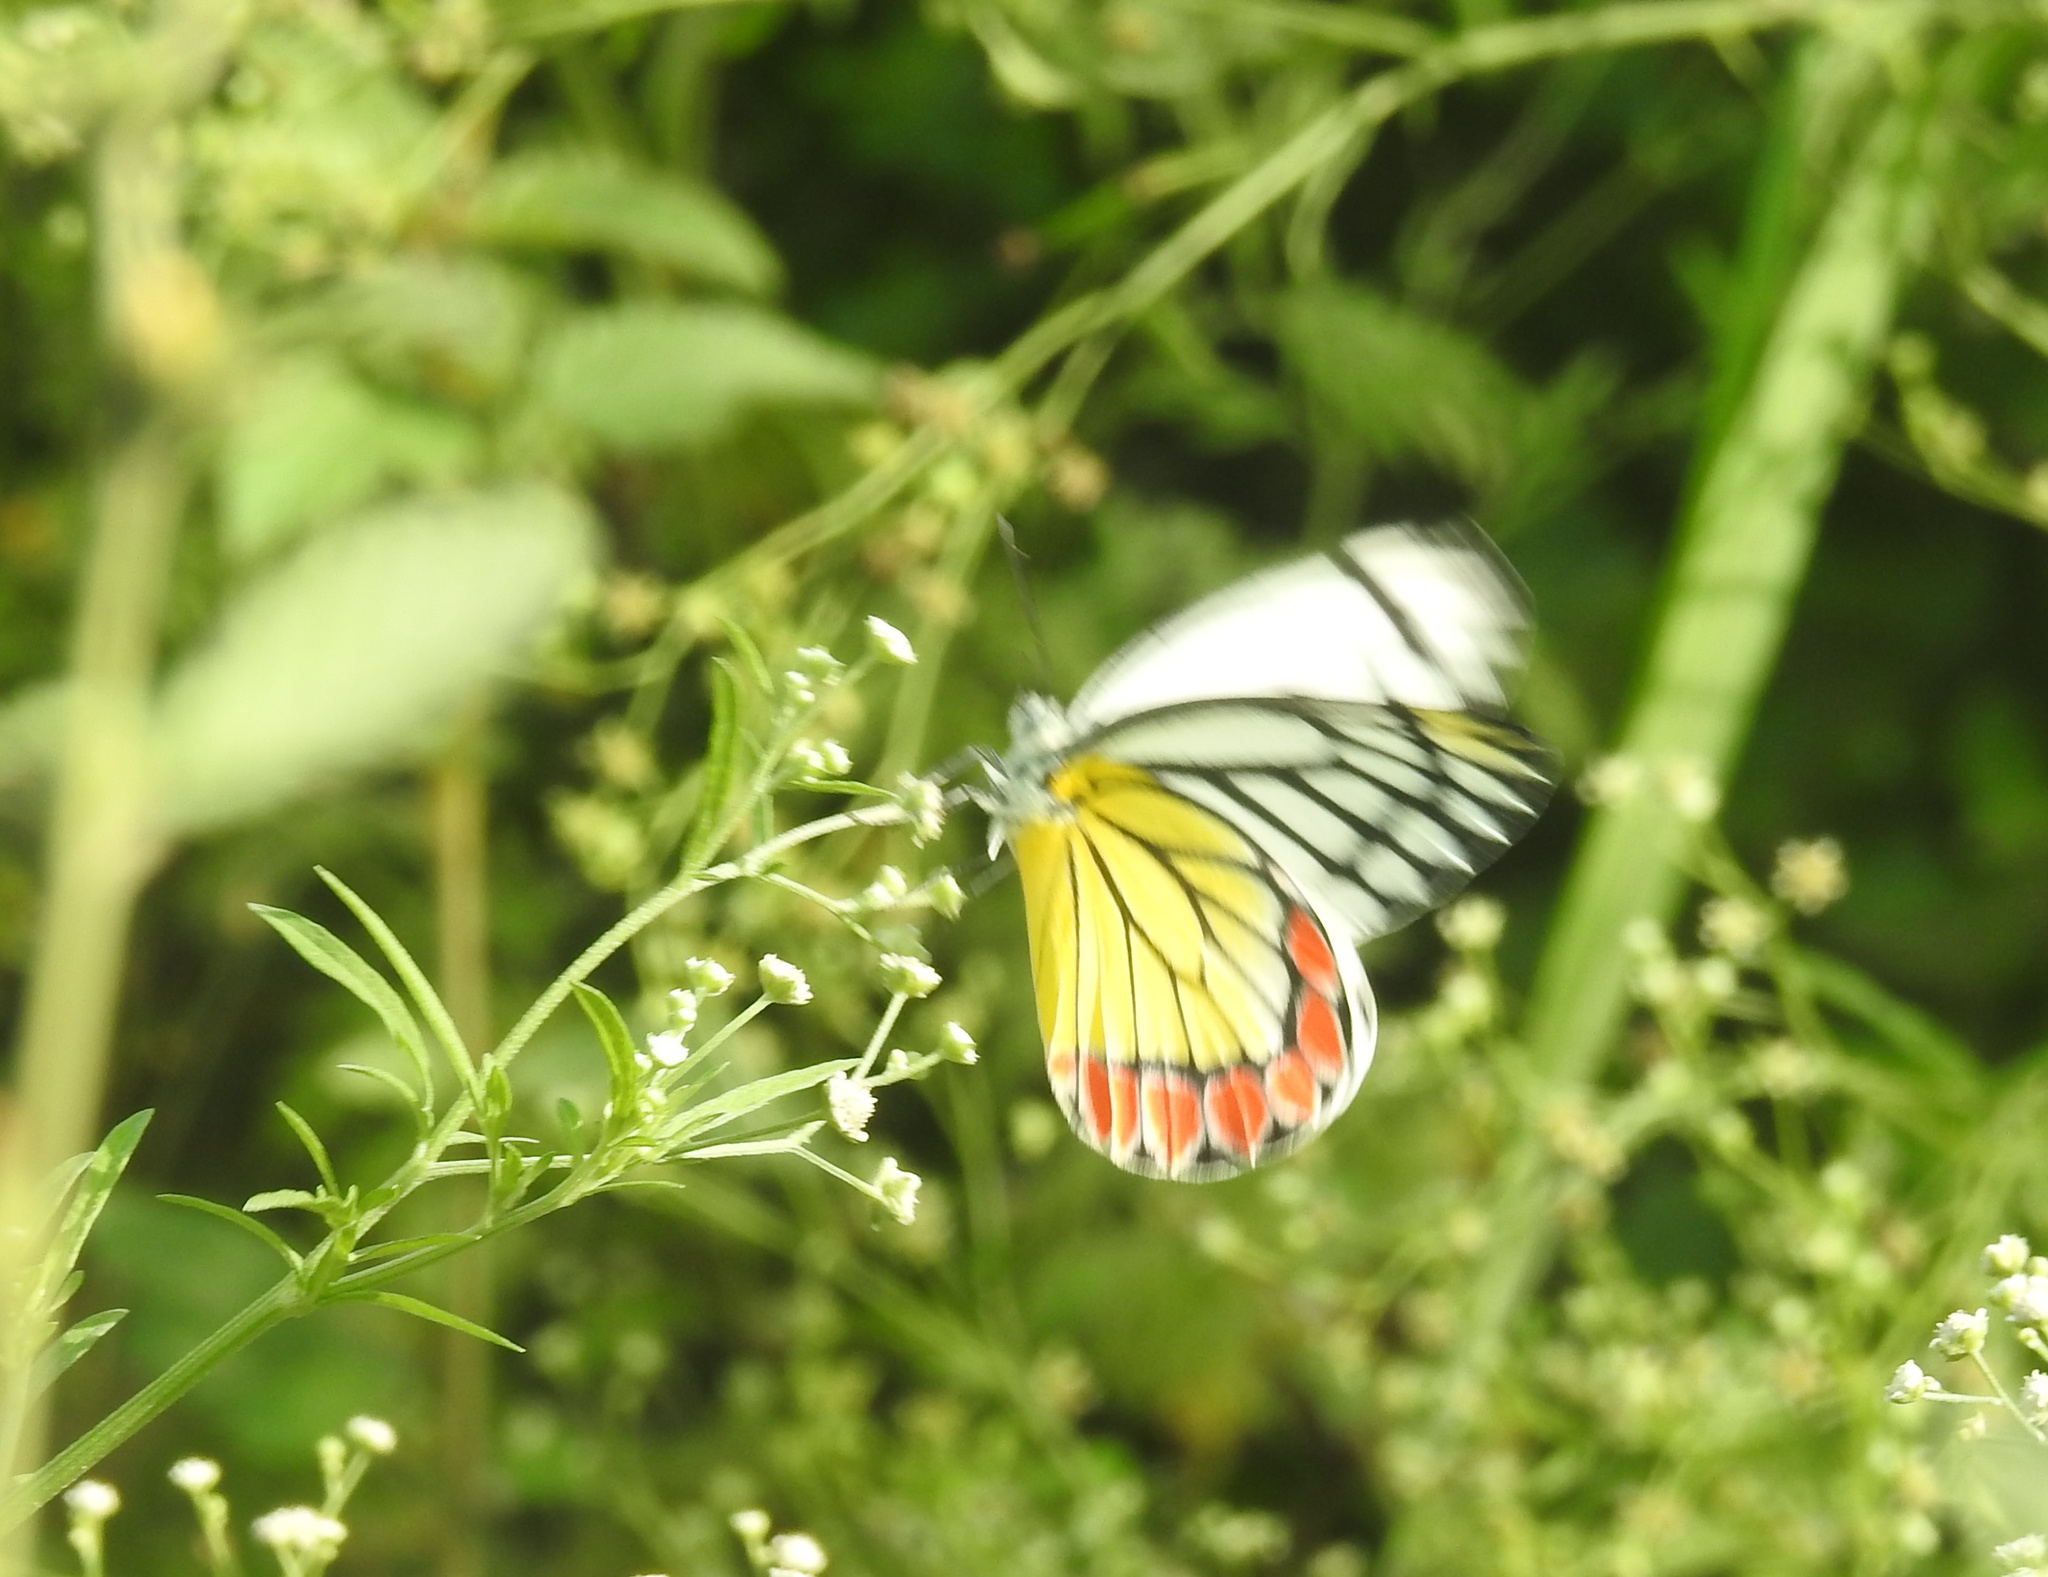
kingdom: Animalia
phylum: Arthropoda
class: Insecta
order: Lepidoptera
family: Pieridae
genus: Delias
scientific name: Delias eucharis
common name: Common jezebel
